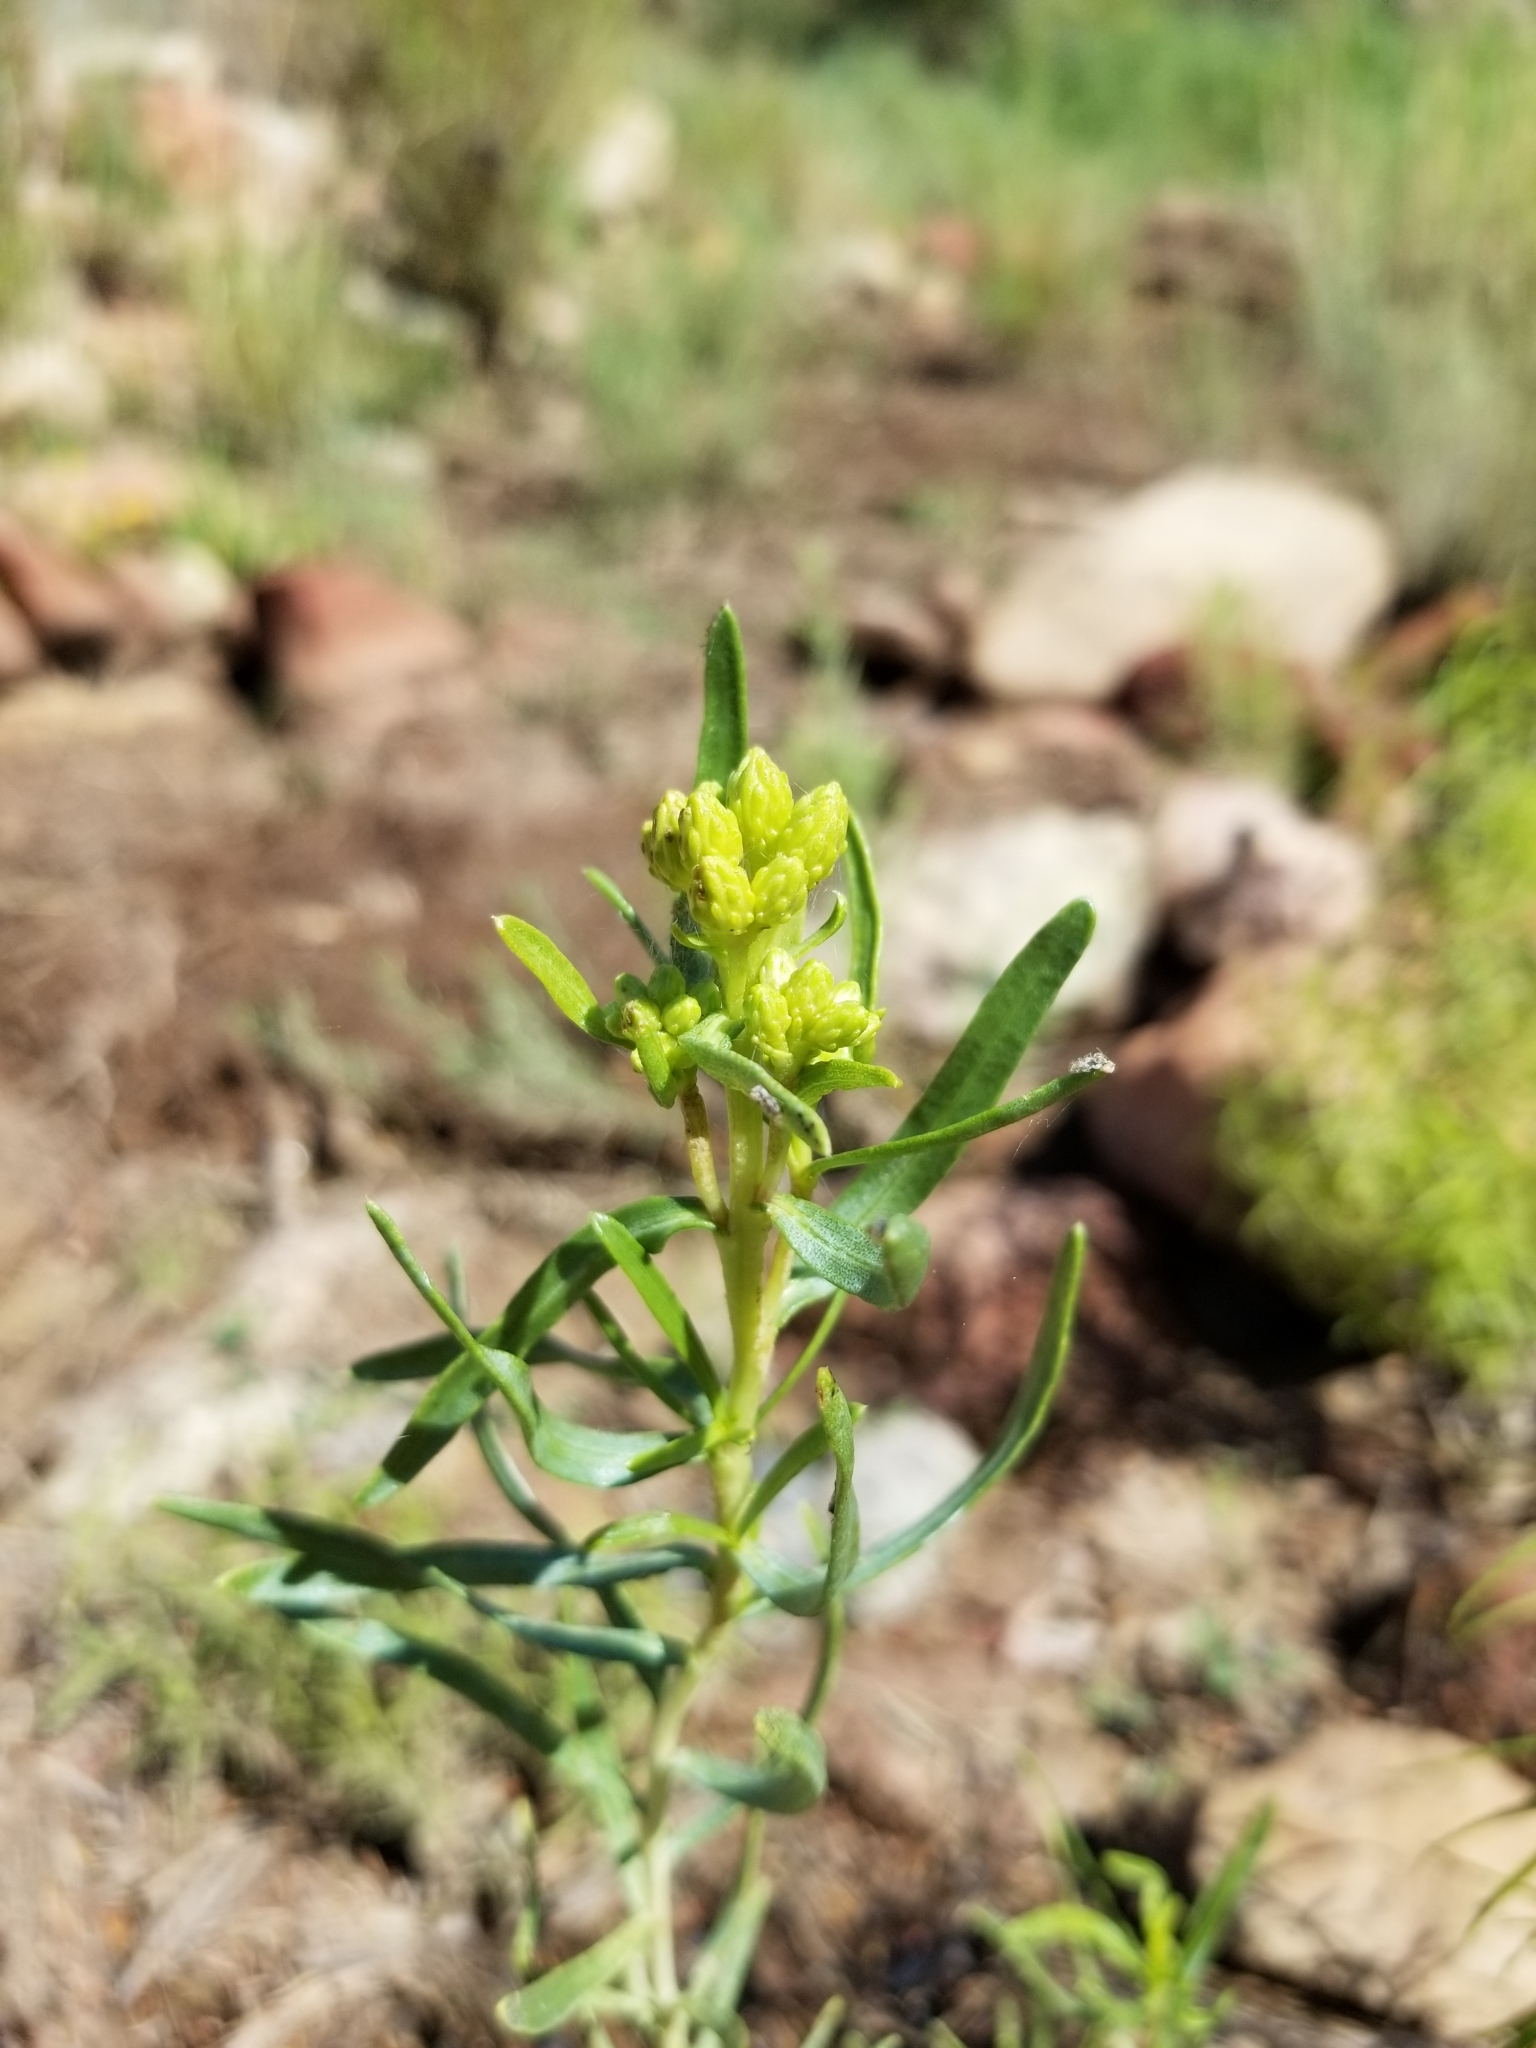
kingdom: Plantae
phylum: Tracheophyta
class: Magnoliopsida
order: Asterales
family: Asteraceae
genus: Chrysothamnus
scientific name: Chrysothamnus viscidiflorus
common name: Yellow rabbitbrush
